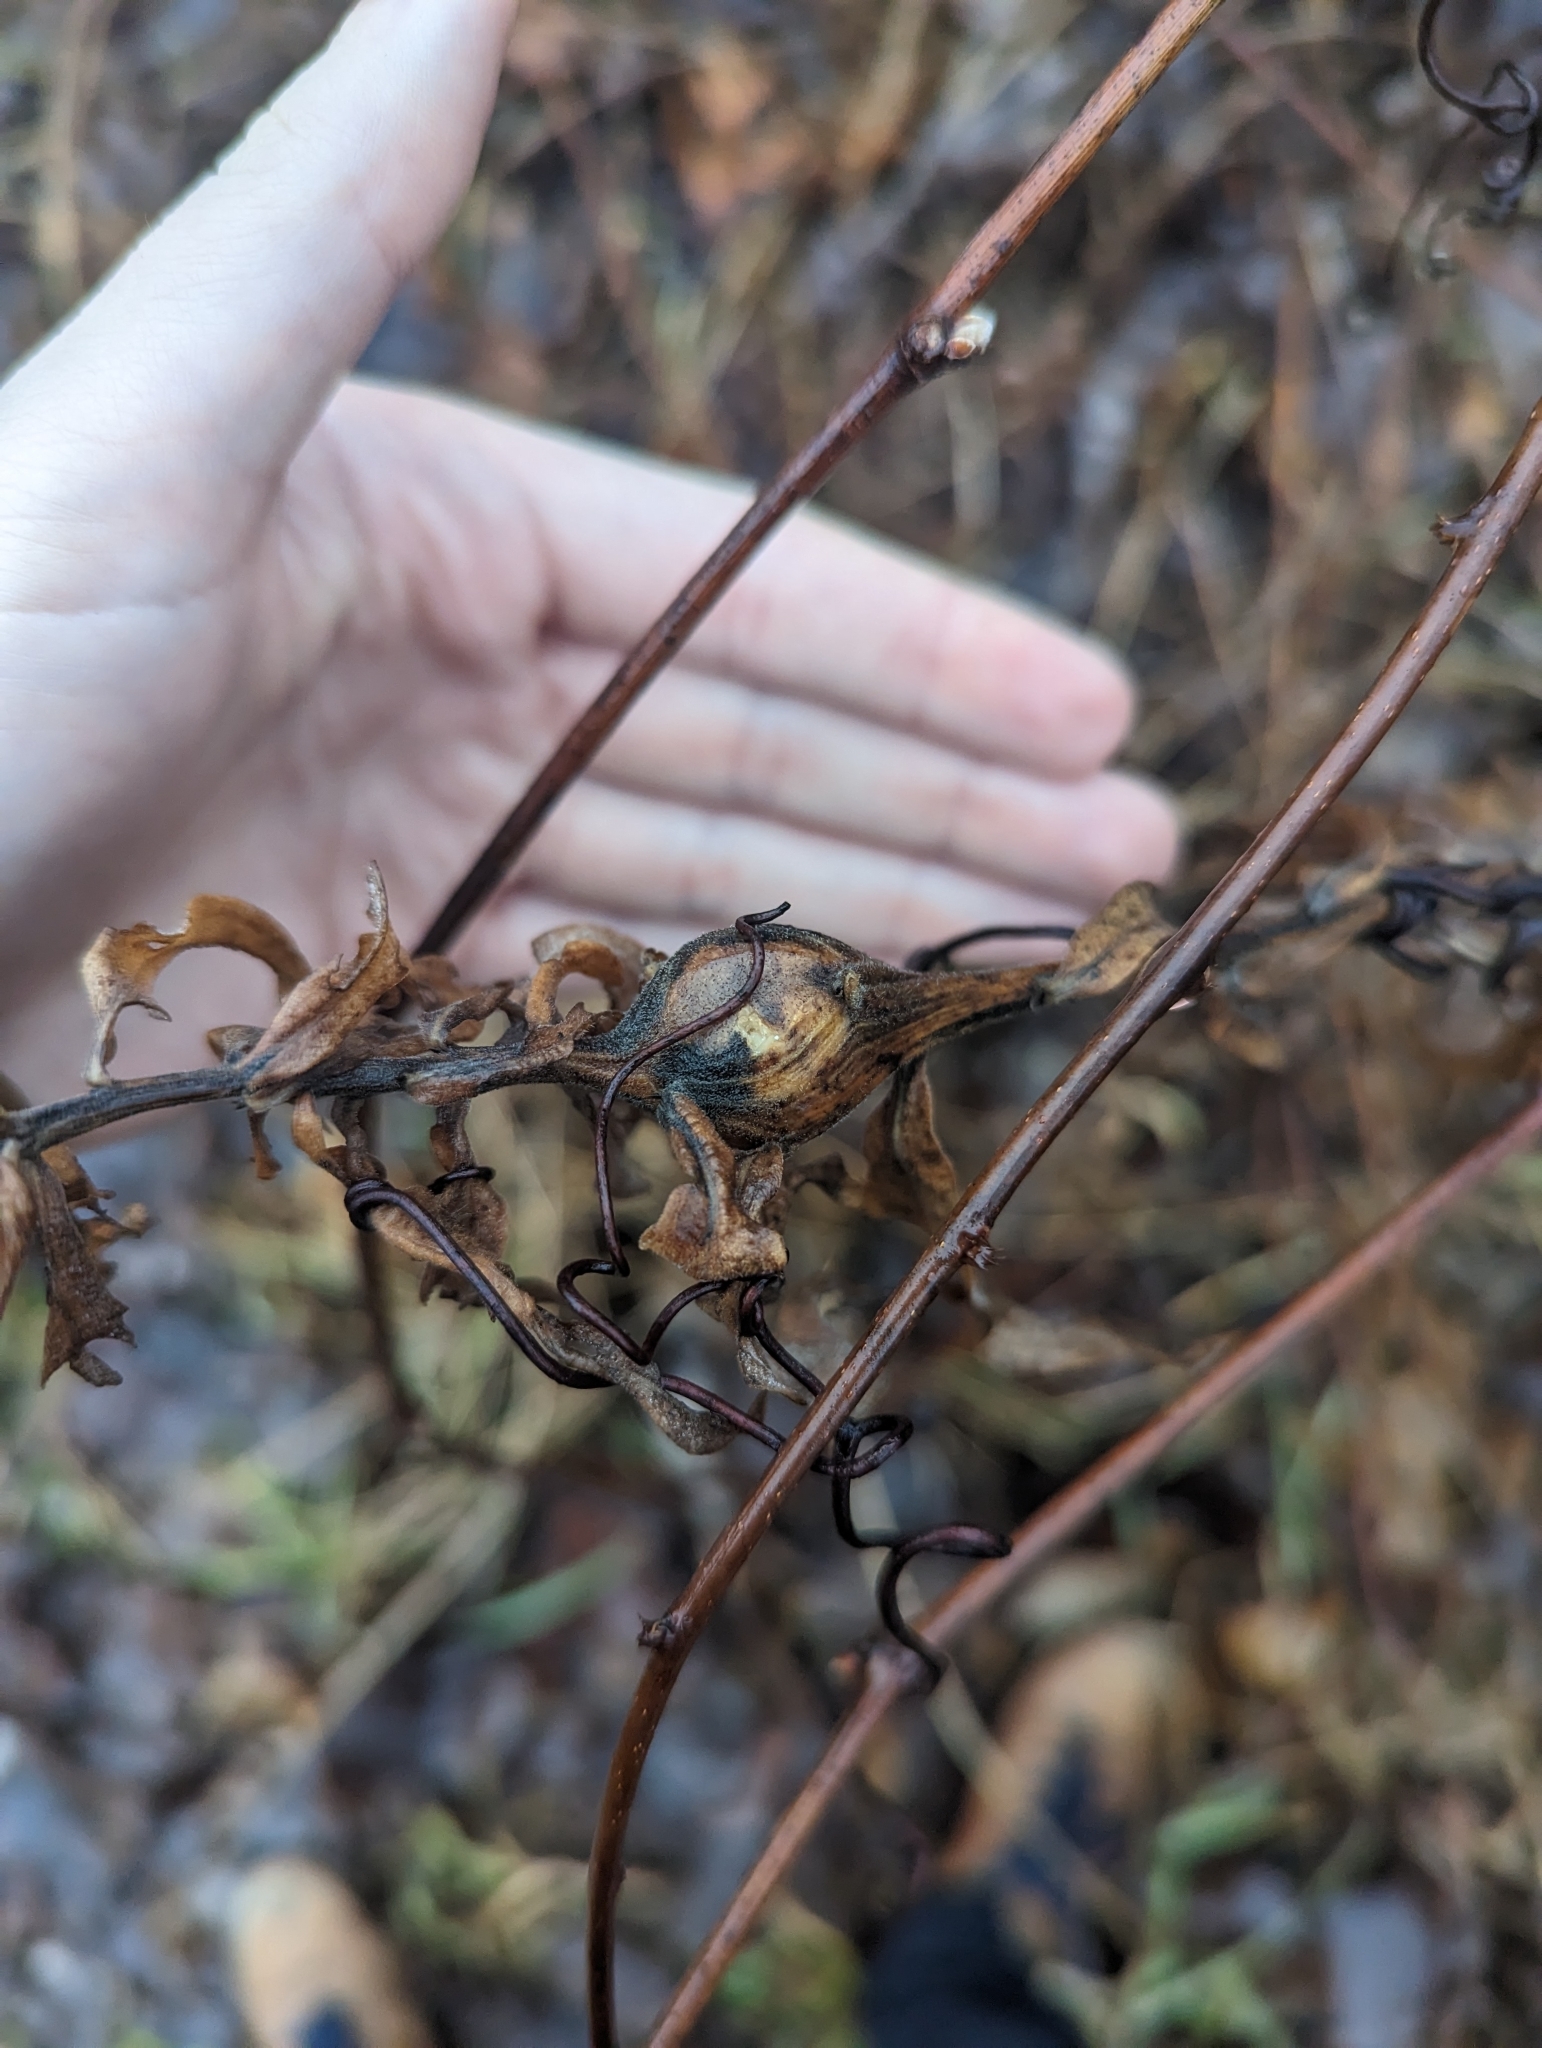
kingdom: Animalia
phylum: Arthropoda
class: Insecta
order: Diptera
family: Tephritidae
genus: Eurosta
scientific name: Eurosta solidaginis
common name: Goldenrod gall fly
